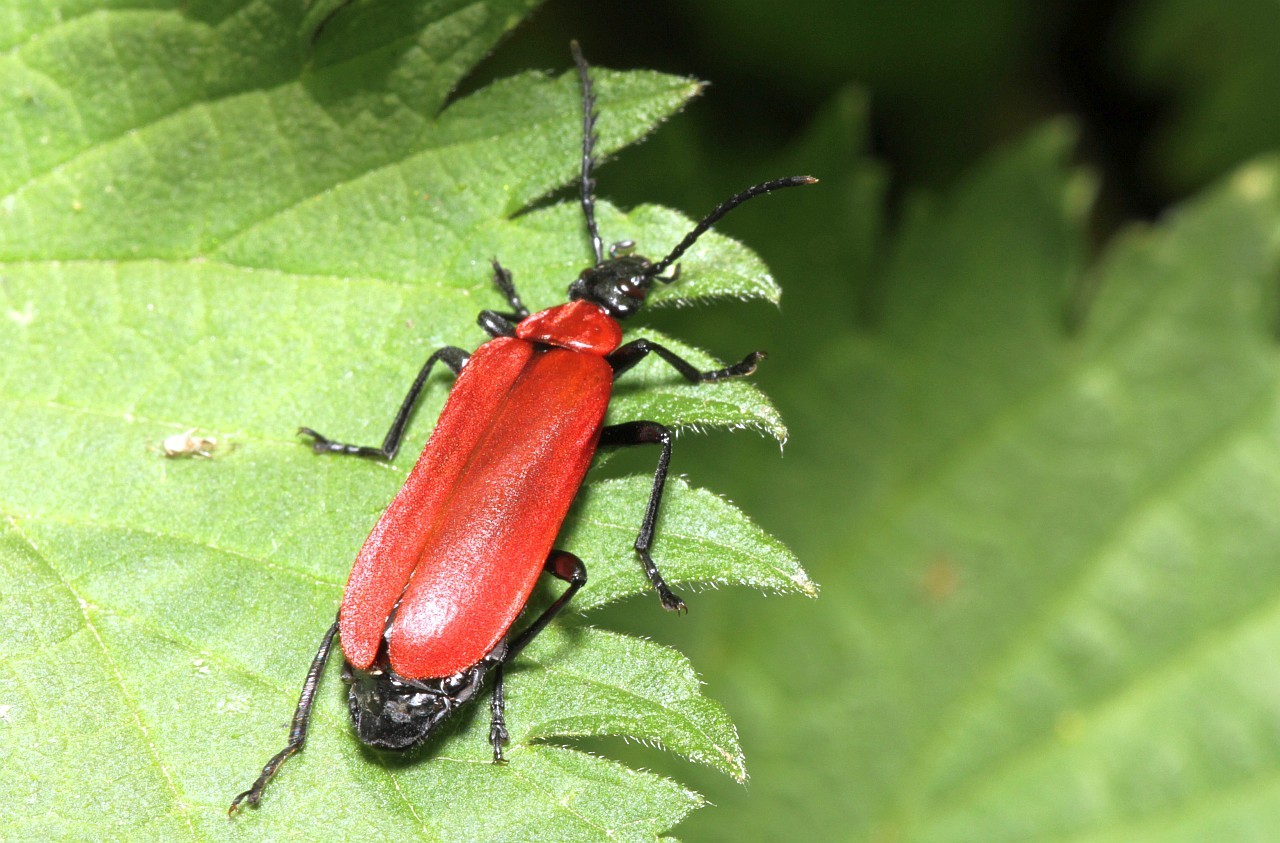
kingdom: Animalia
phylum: Arthropoda
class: Insecta
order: Coleoptera
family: Pyrochroidae
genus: Pyrochroa
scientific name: Pyrochroa coccinea
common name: Black-headed cardinal beetle
